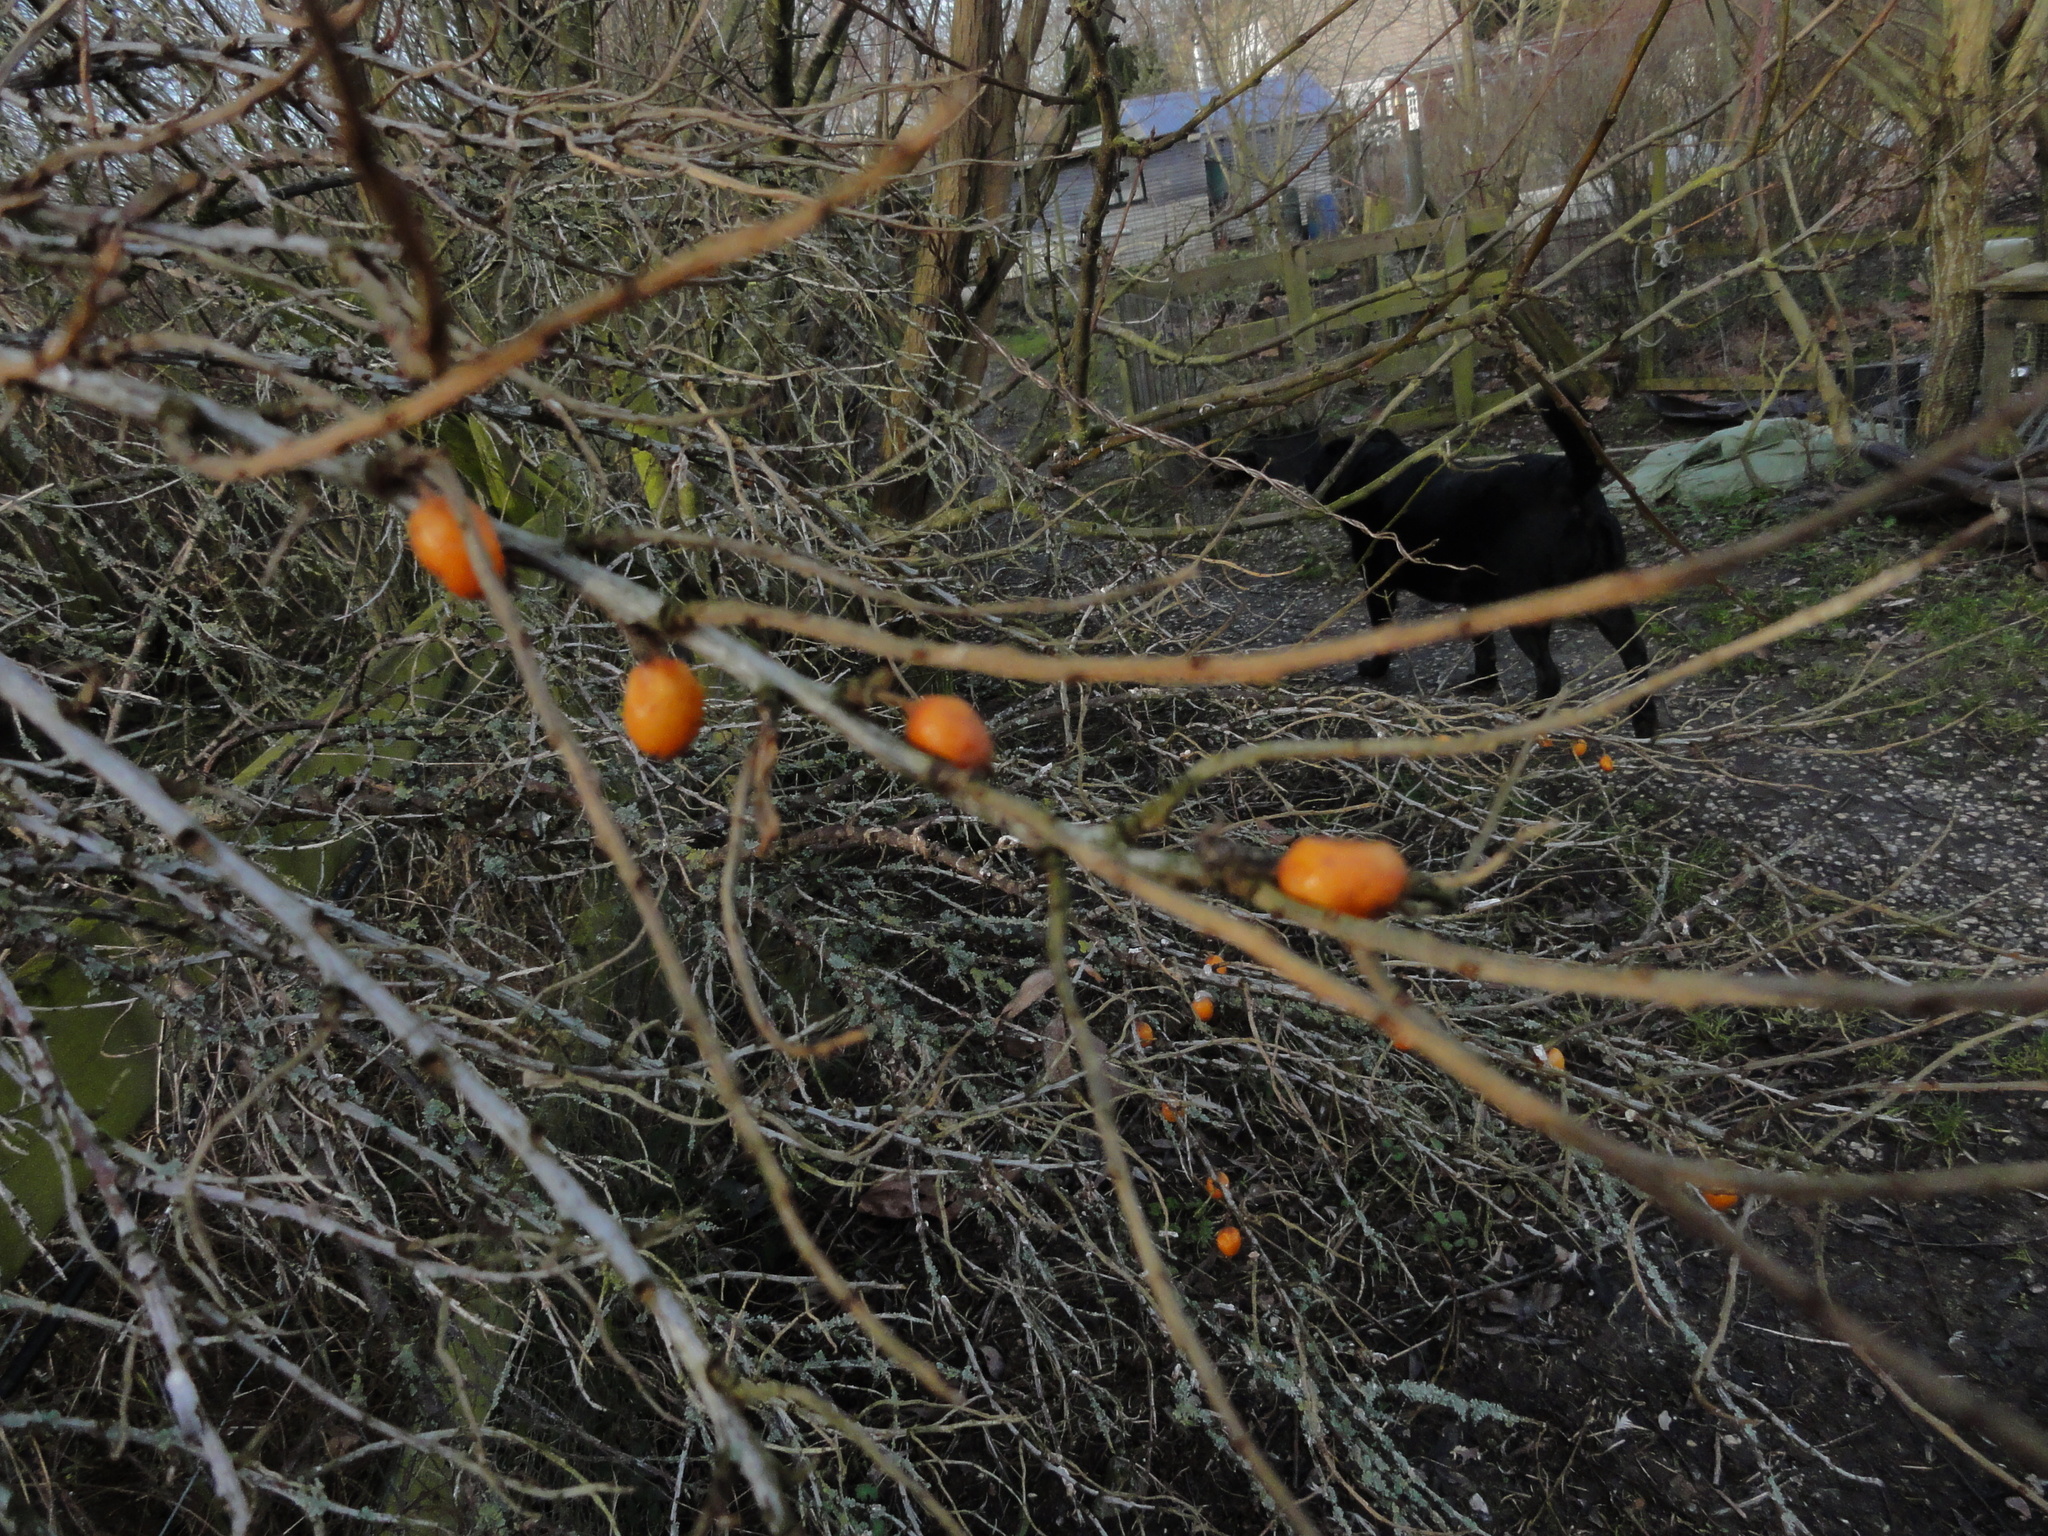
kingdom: Plantae
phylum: Tracheophyta
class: Magnoliopsida
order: Rosales
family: Elaeagnaceae
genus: Hippophae
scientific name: Hippophae rhamnoides
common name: Sea-buckthorn
